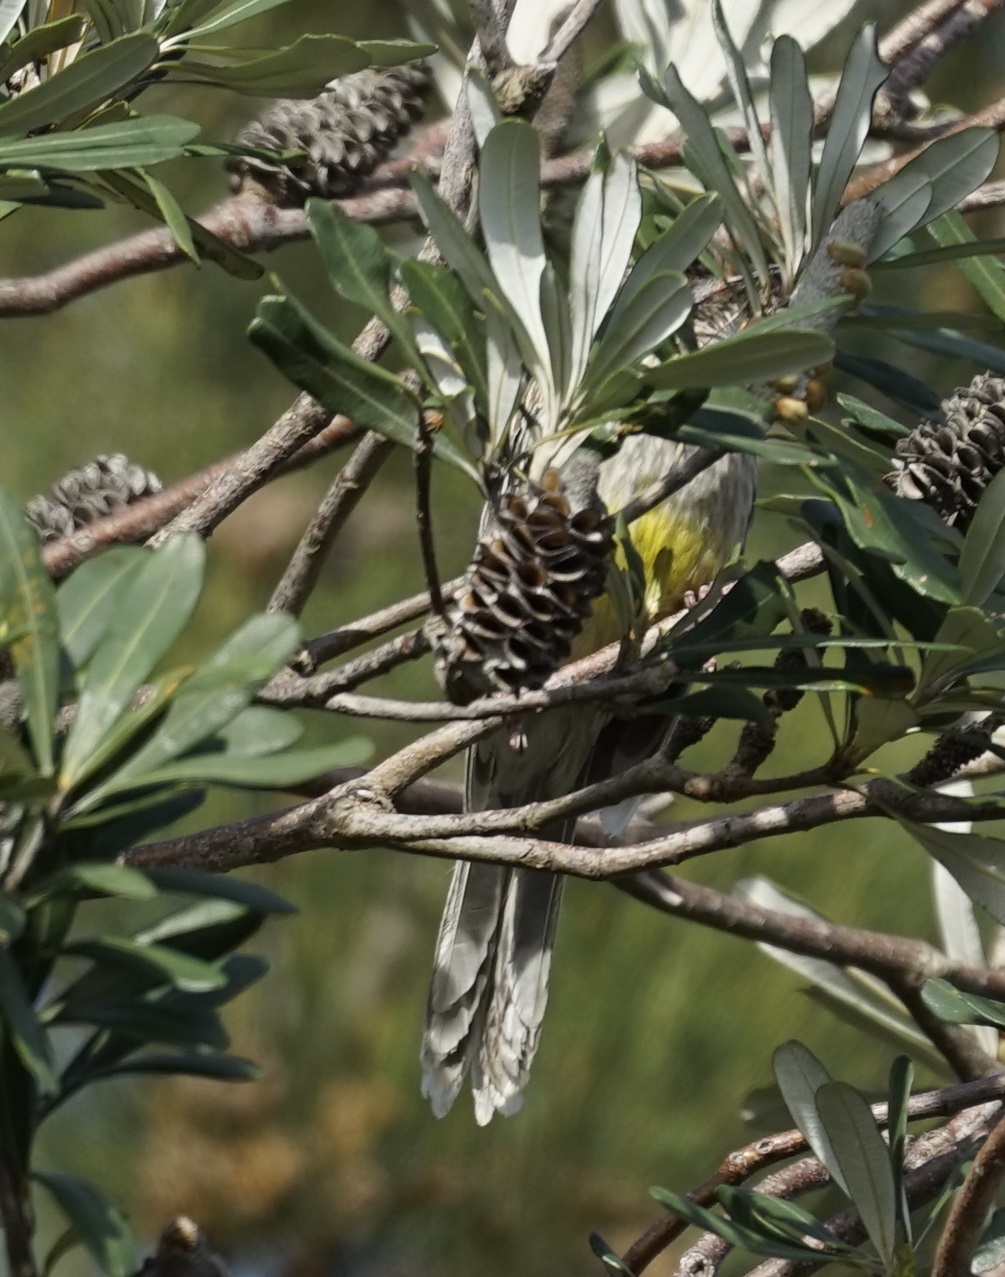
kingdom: Animalia
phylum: Chordata
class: Aves
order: Passeriformes
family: Meliphagidae
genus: Anthochaera
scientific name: Anthochaera carunculata
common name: Red wattlebird
